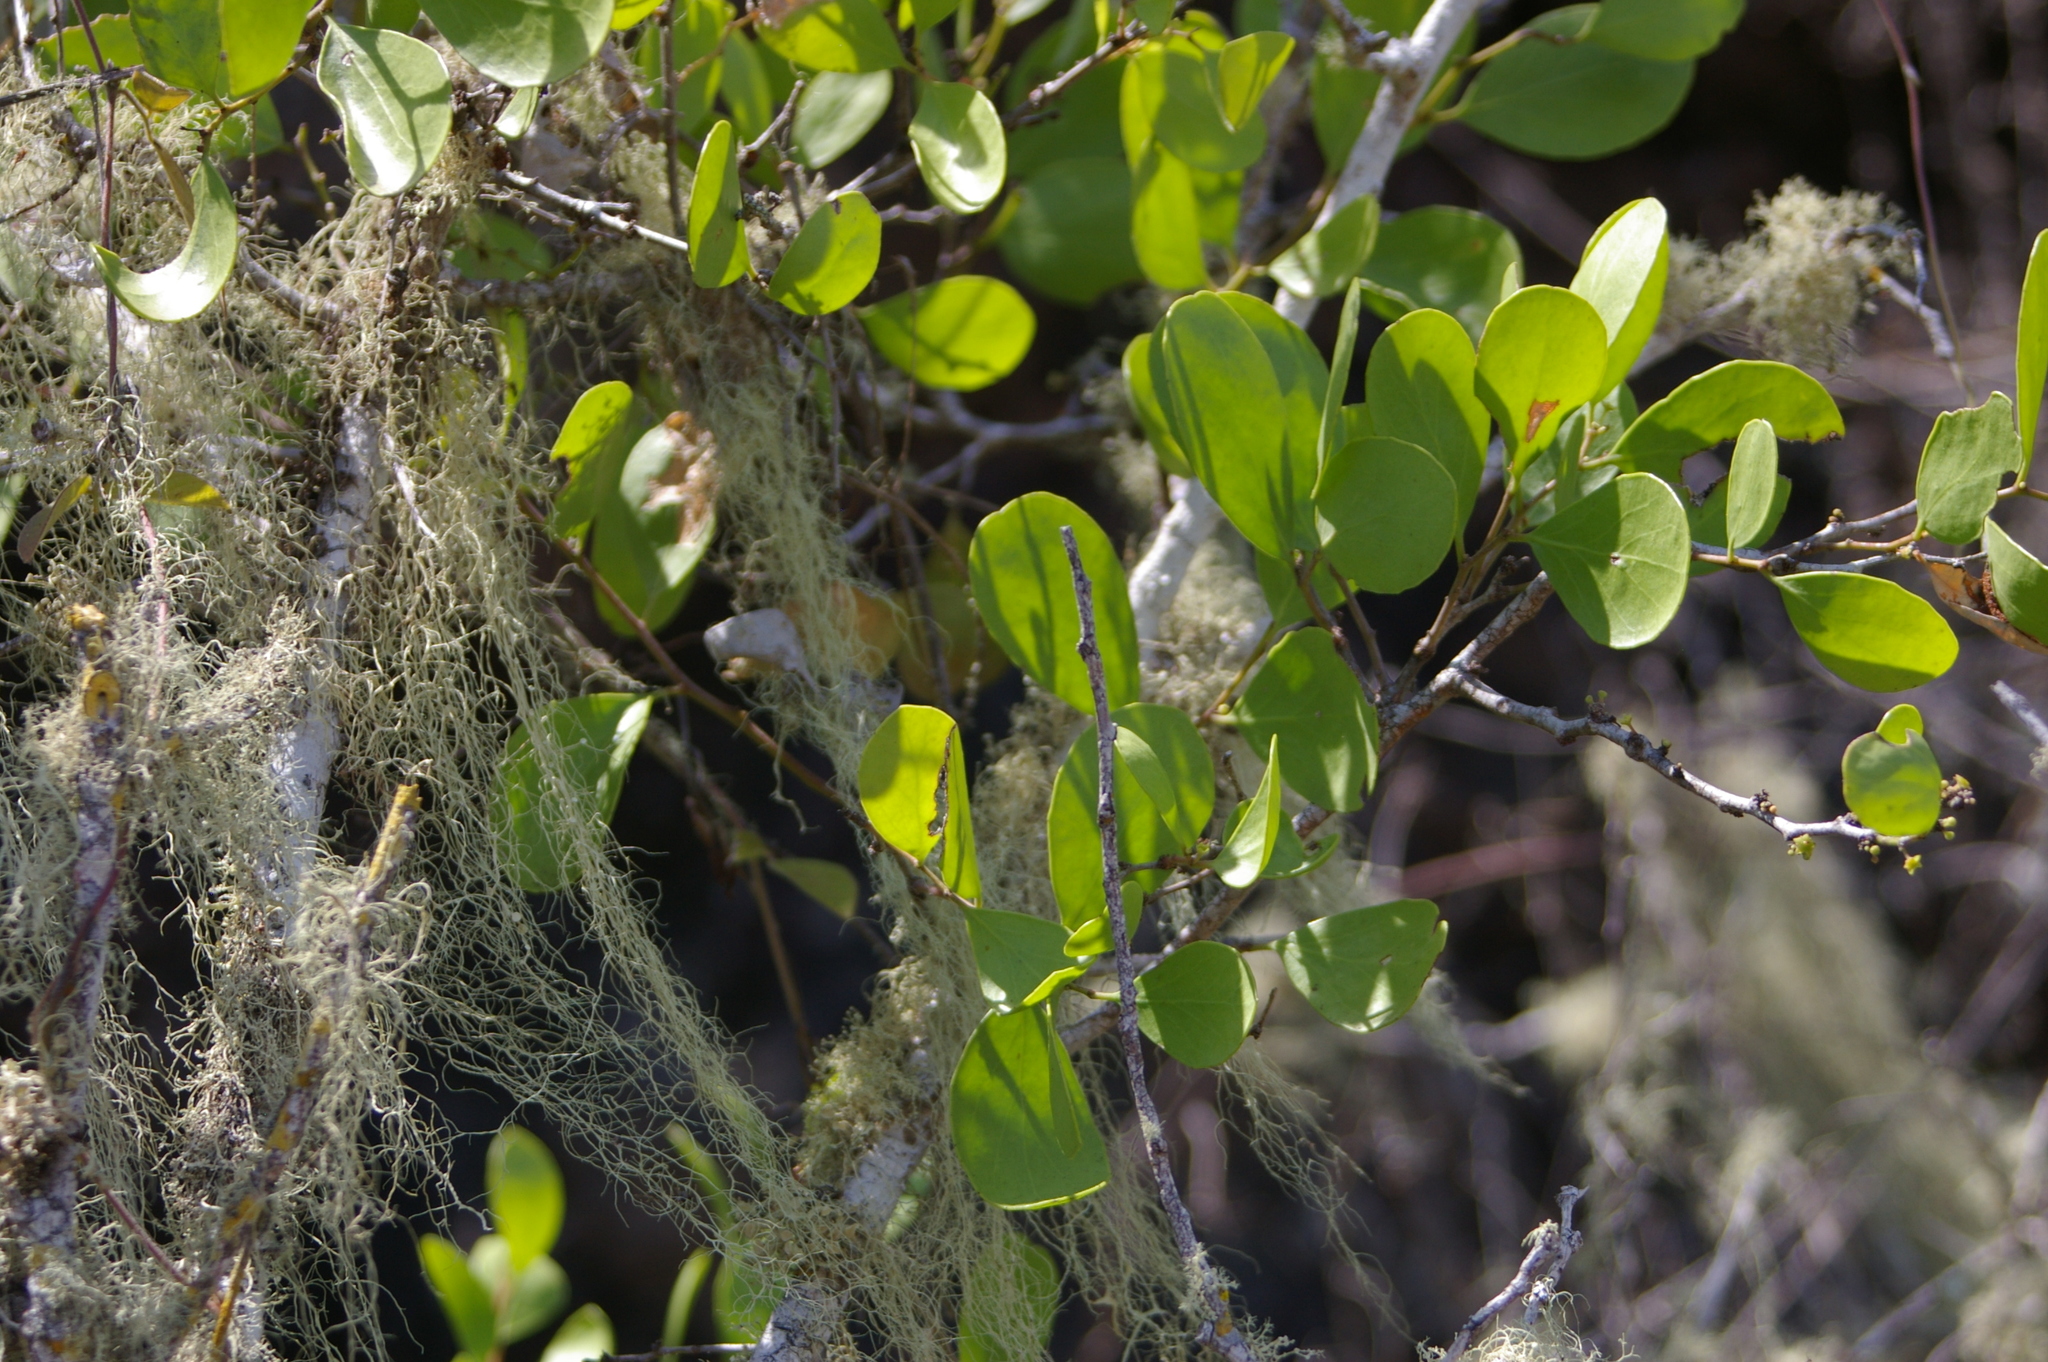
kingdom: Plantae
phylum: Tracheophyta
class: Magnoliopsida
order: Celastrales
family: Celastraceae
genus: Tricerma
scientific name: Tricerma octogonum
